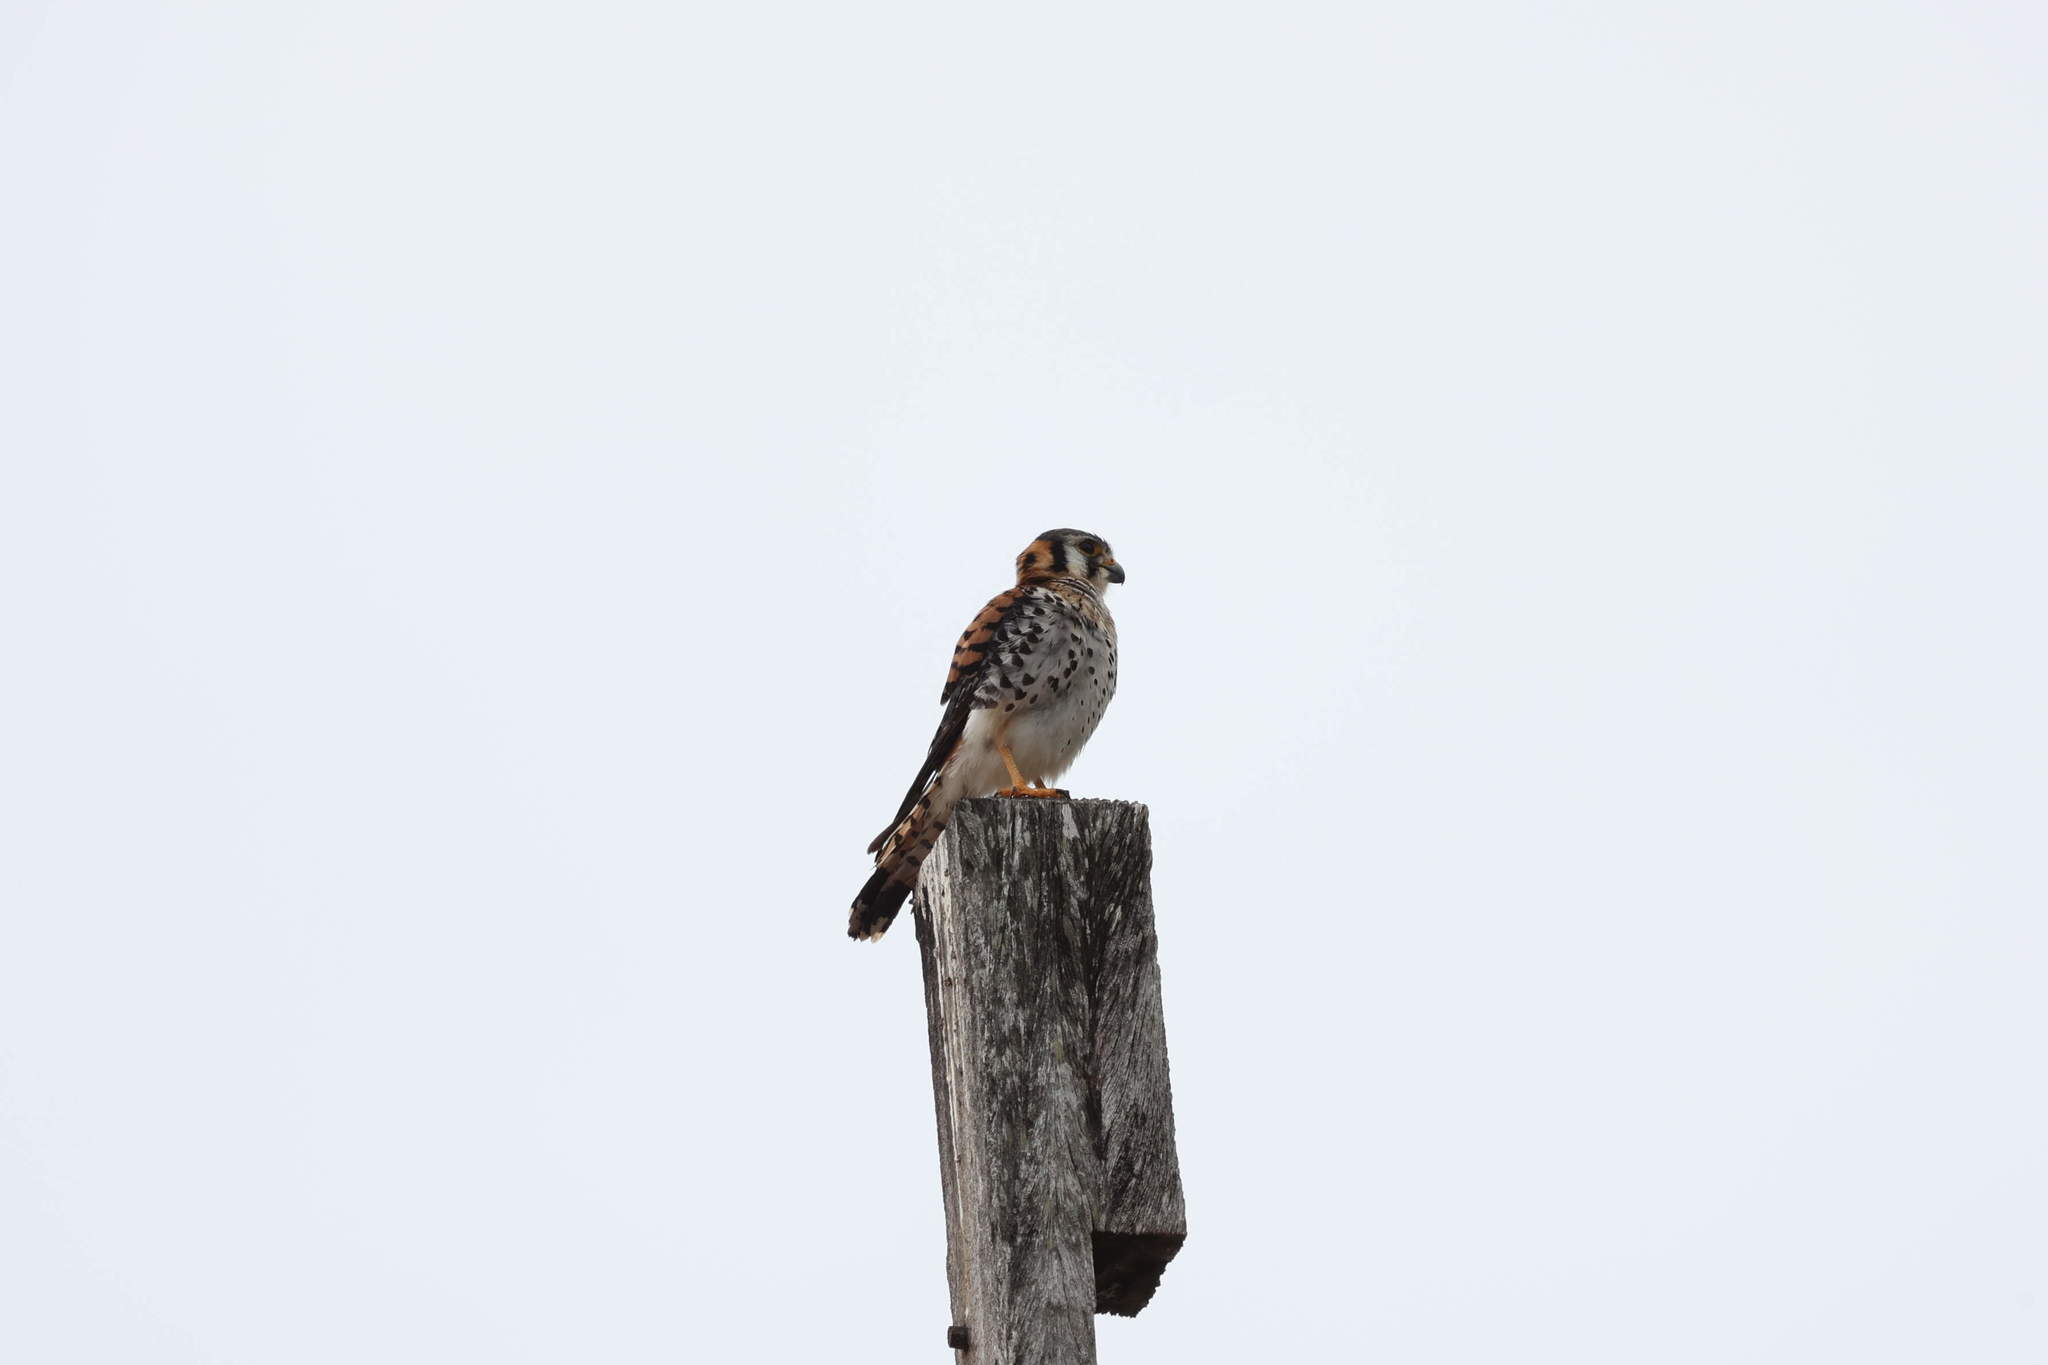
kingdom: Animalia
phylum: Chordata
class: Aves
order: Falconiformes
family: Falconidae
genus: Falco
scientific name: Falco sparverius
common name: American kestrel
